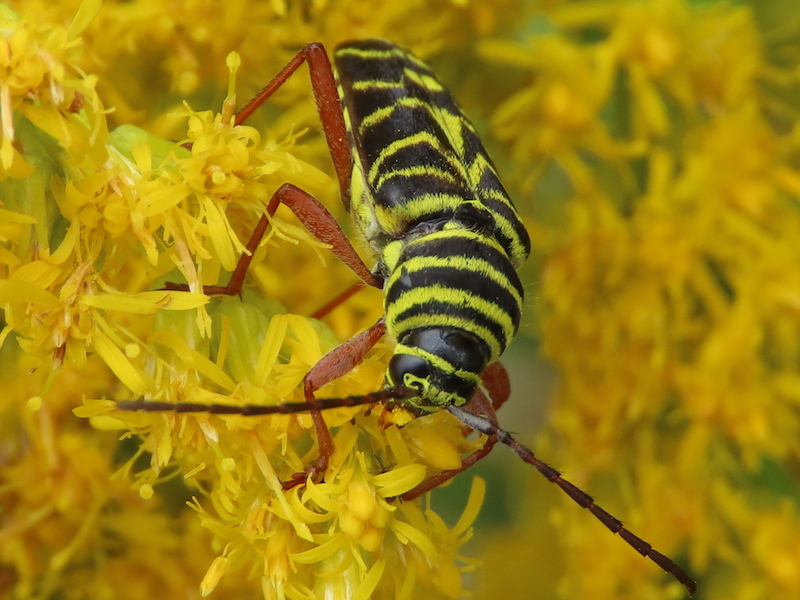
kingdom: Animalia
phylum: Arthropoda
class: Insecta
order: Coleoptera
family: Cerambycidae
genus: Megacyllene
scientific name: Megacyllene robiniae
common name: Locust borer
